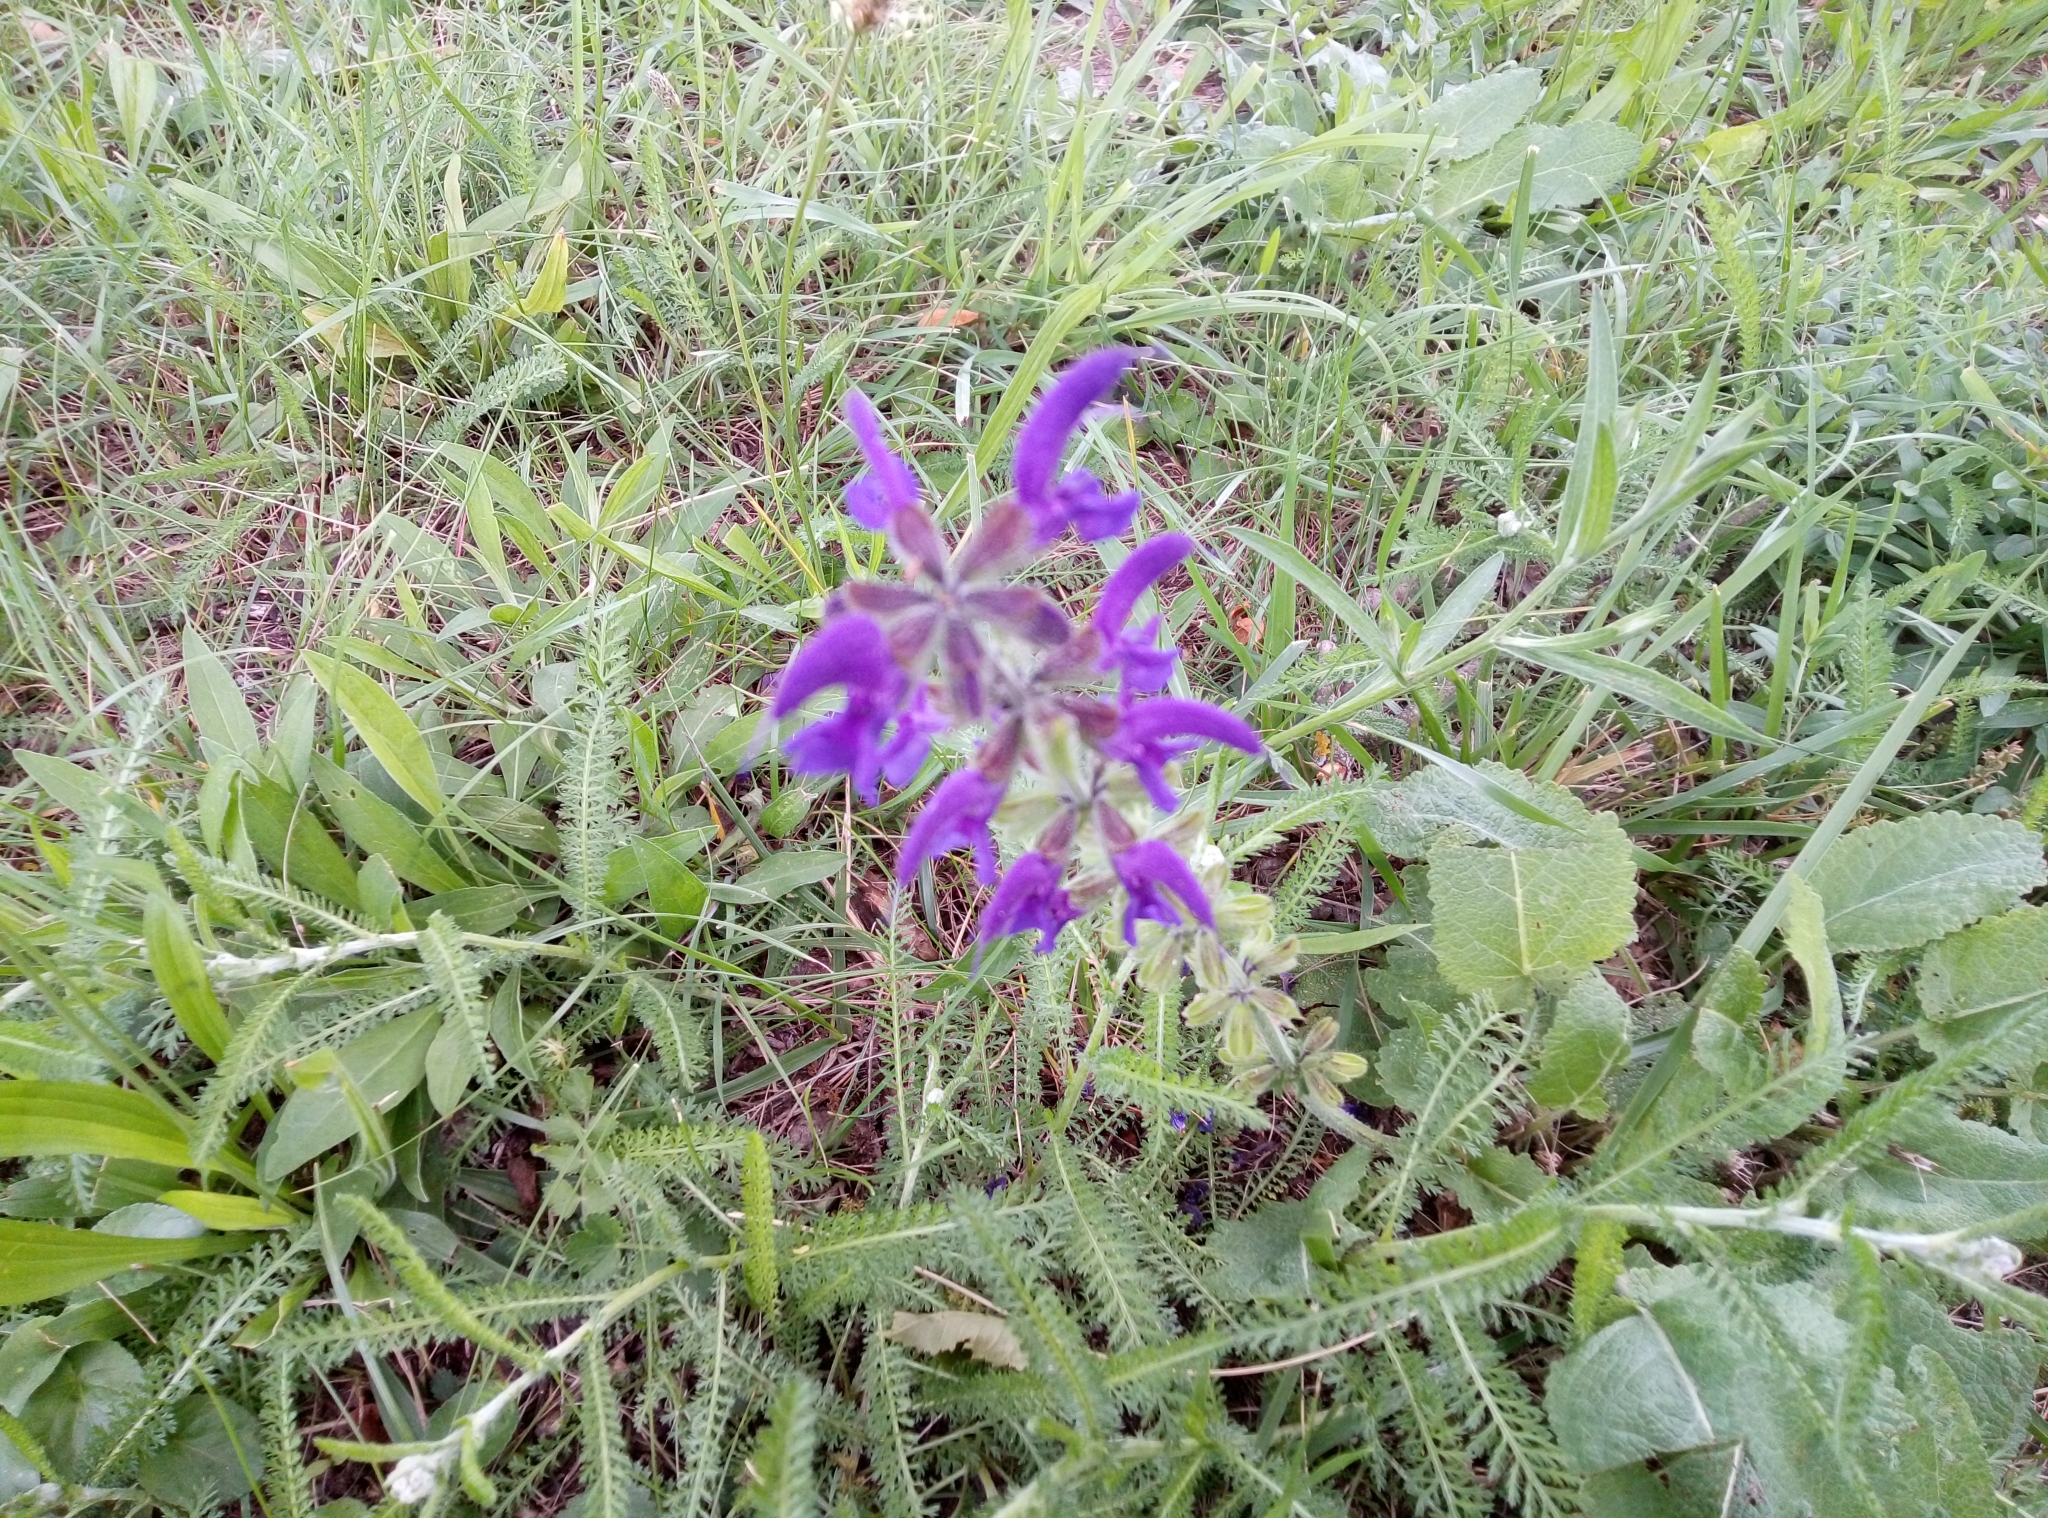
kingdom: Plantae
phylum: Tracheophyta
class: Magnoliopsida
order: Lamiales
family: Lamiaceae
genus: Salvia
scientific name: Salvia pratensis
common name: Meadow sage
